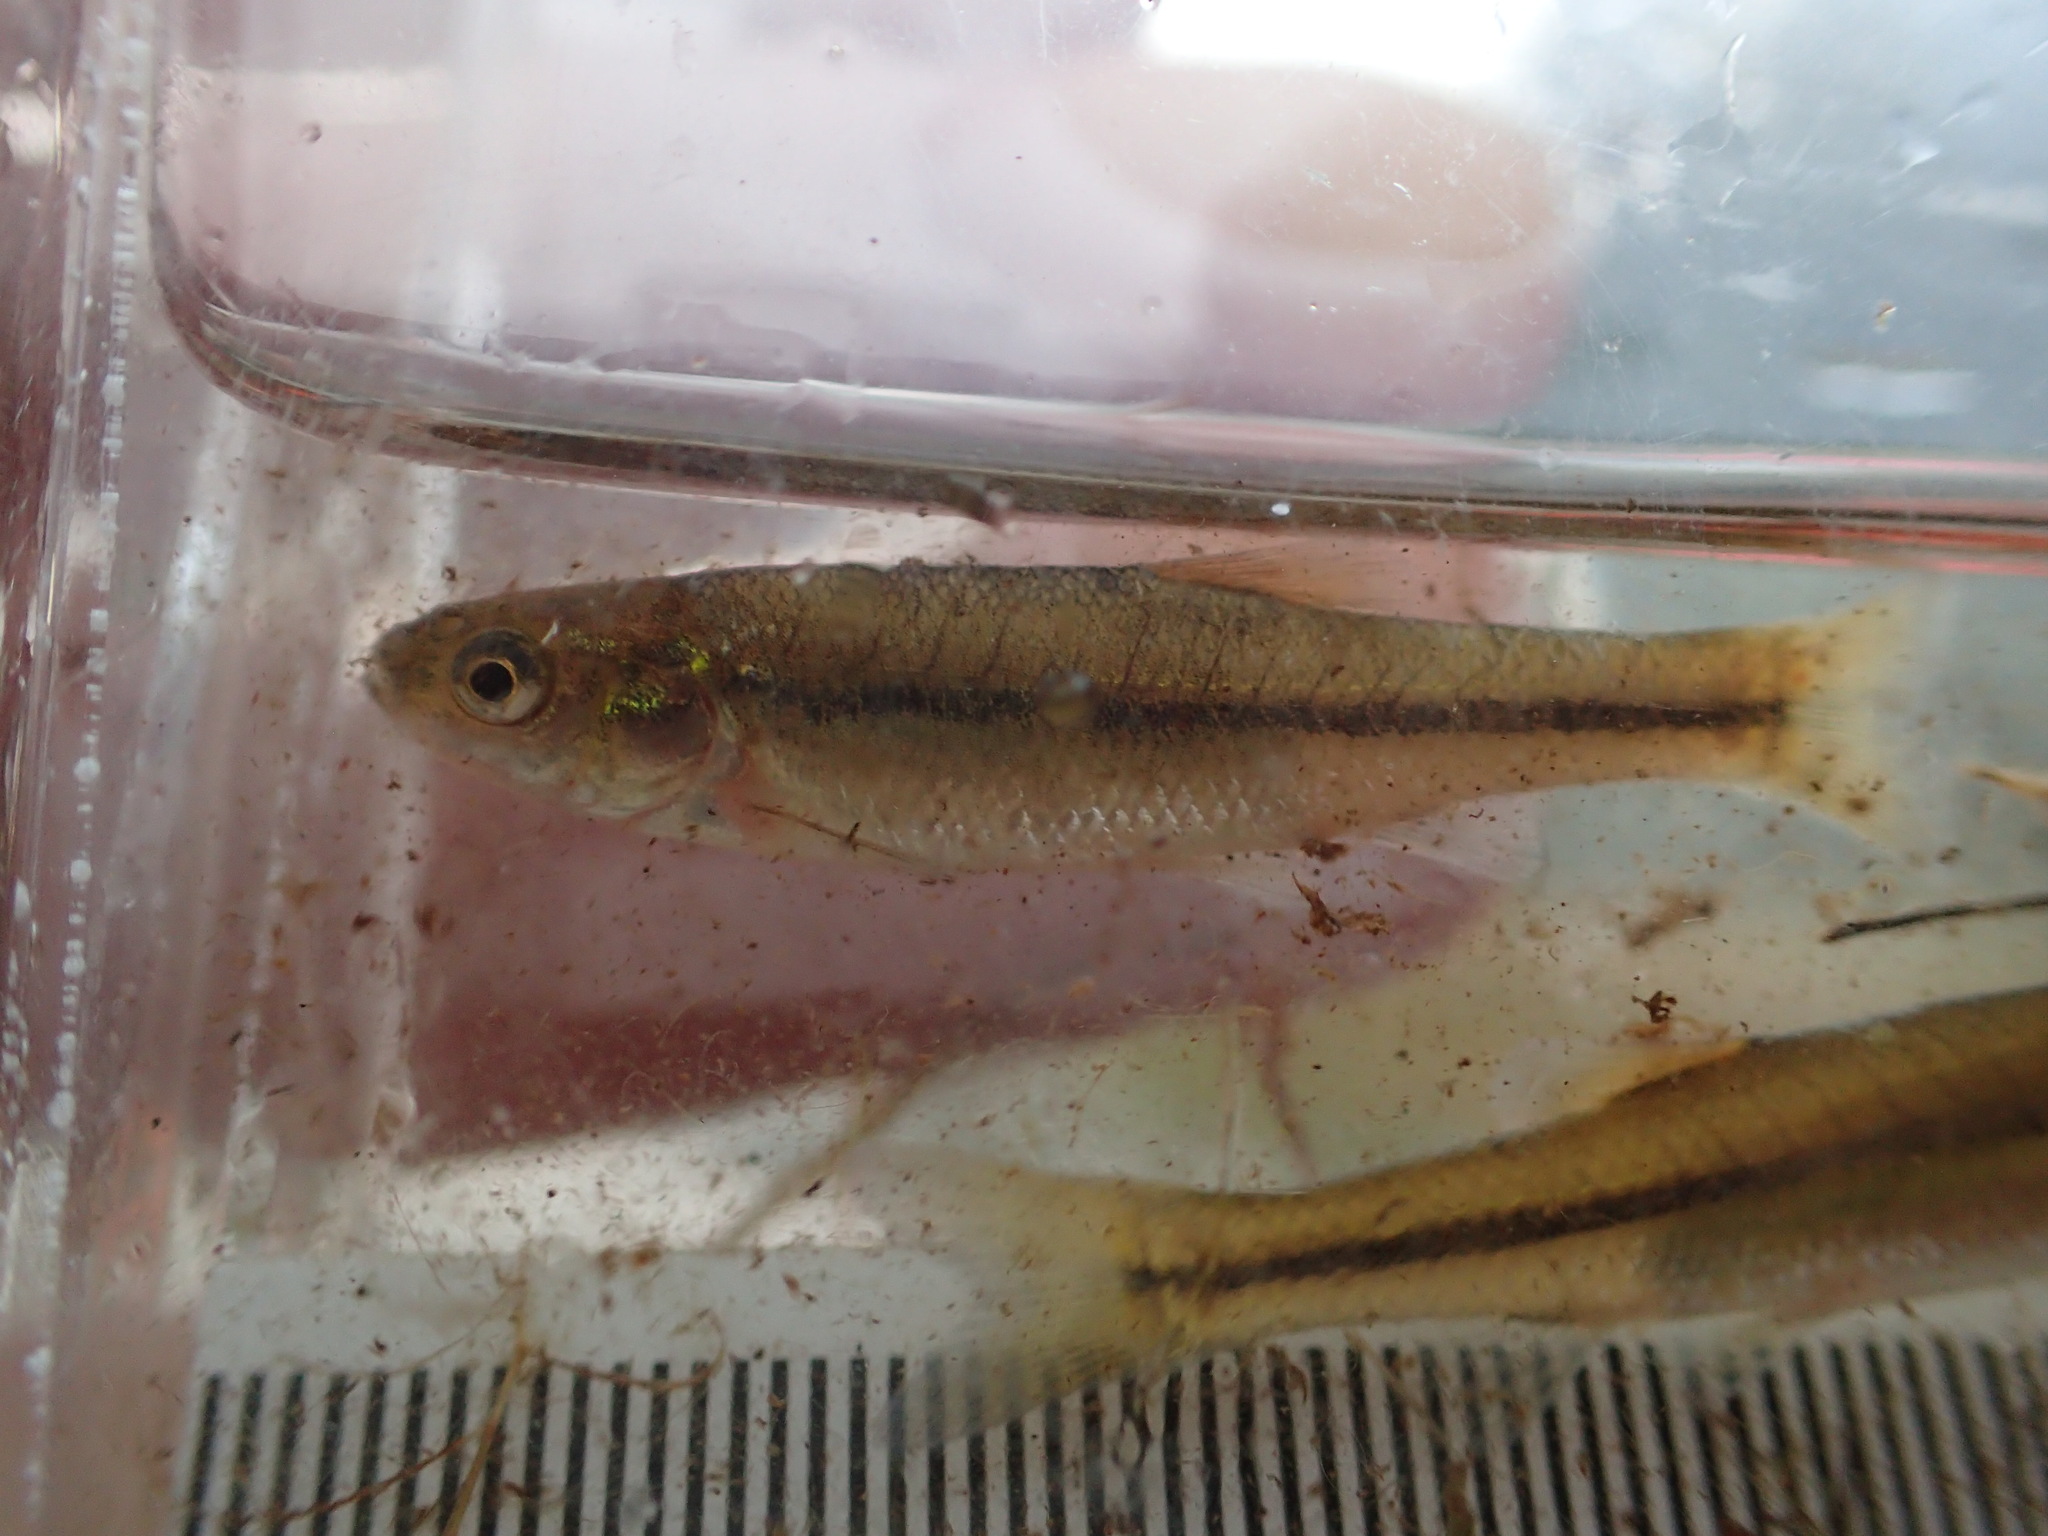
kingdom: Animalia
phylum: Chordata
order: Cypriniformes
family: Cyprinidae
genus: Pimephales
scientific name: Pimephales promelas
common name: Fathead minnow
